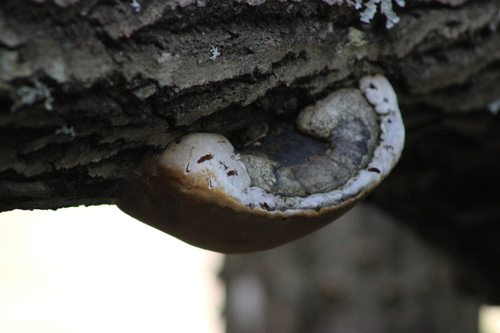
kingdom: Fungi
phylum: Basidiomycota
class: Agaricomycetes
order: Hymenochaetales
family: Hymenochaetaceae
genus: Phellinus
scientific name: Phellinus igniarius
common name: Willow bracket
